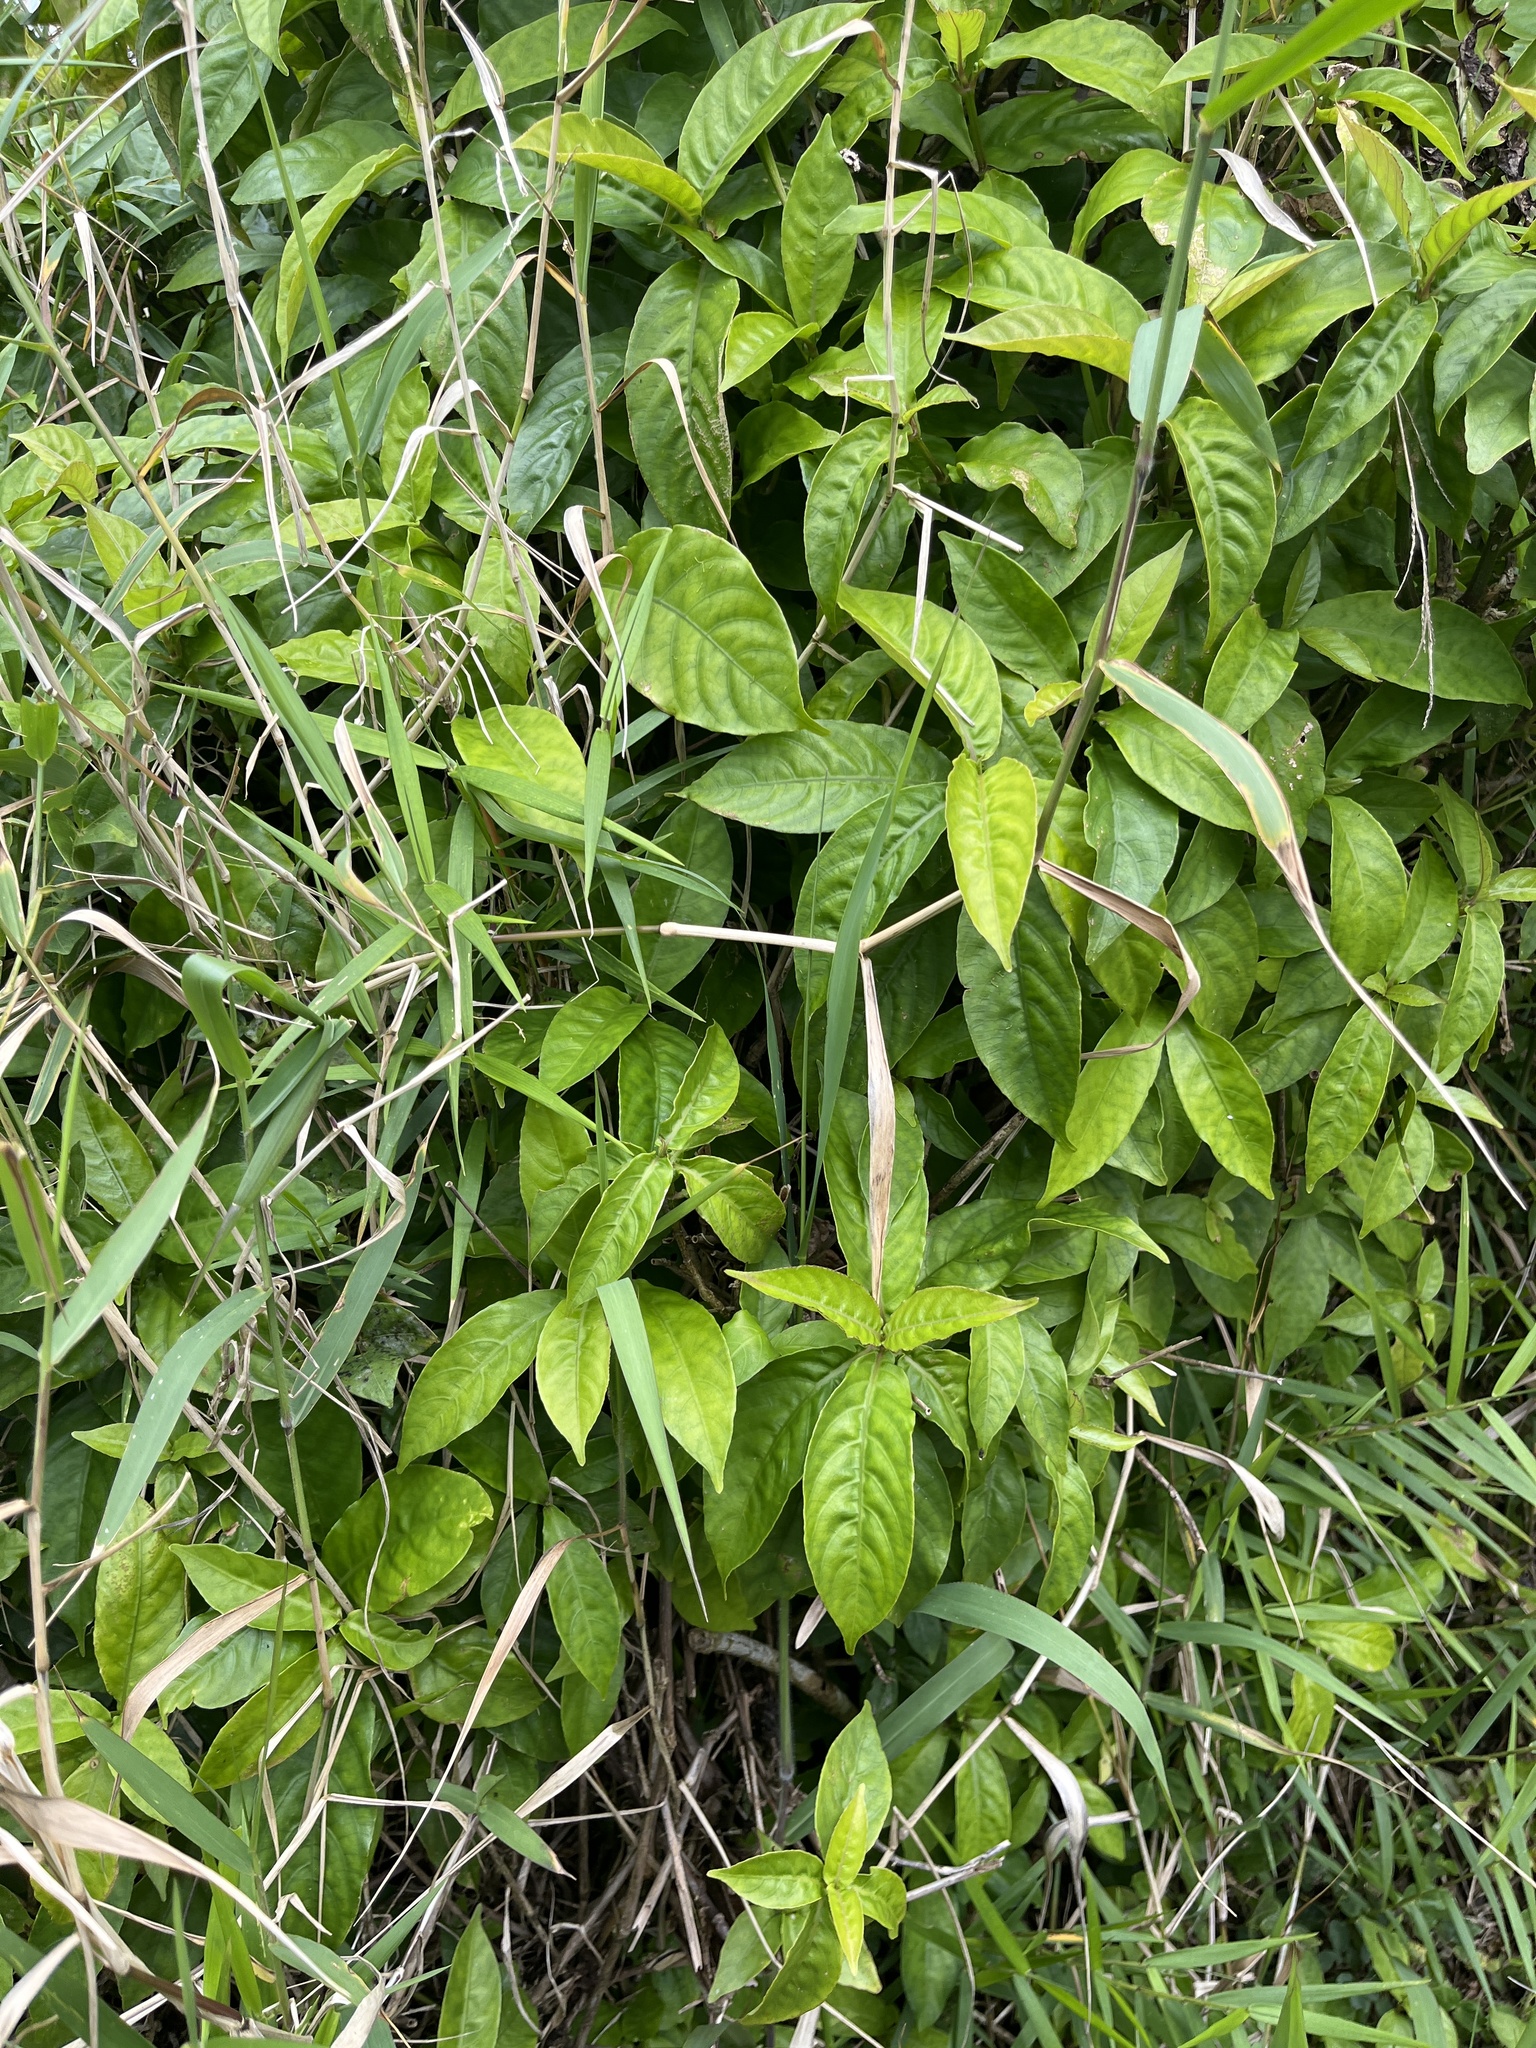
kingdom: Plantae
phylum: Tracheophyta
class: Magnoliopsida
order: Lamiales
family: Acanthaceae
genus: Odontonema
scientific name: Odontonema cuspidatum
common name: Mottled toothedthread
